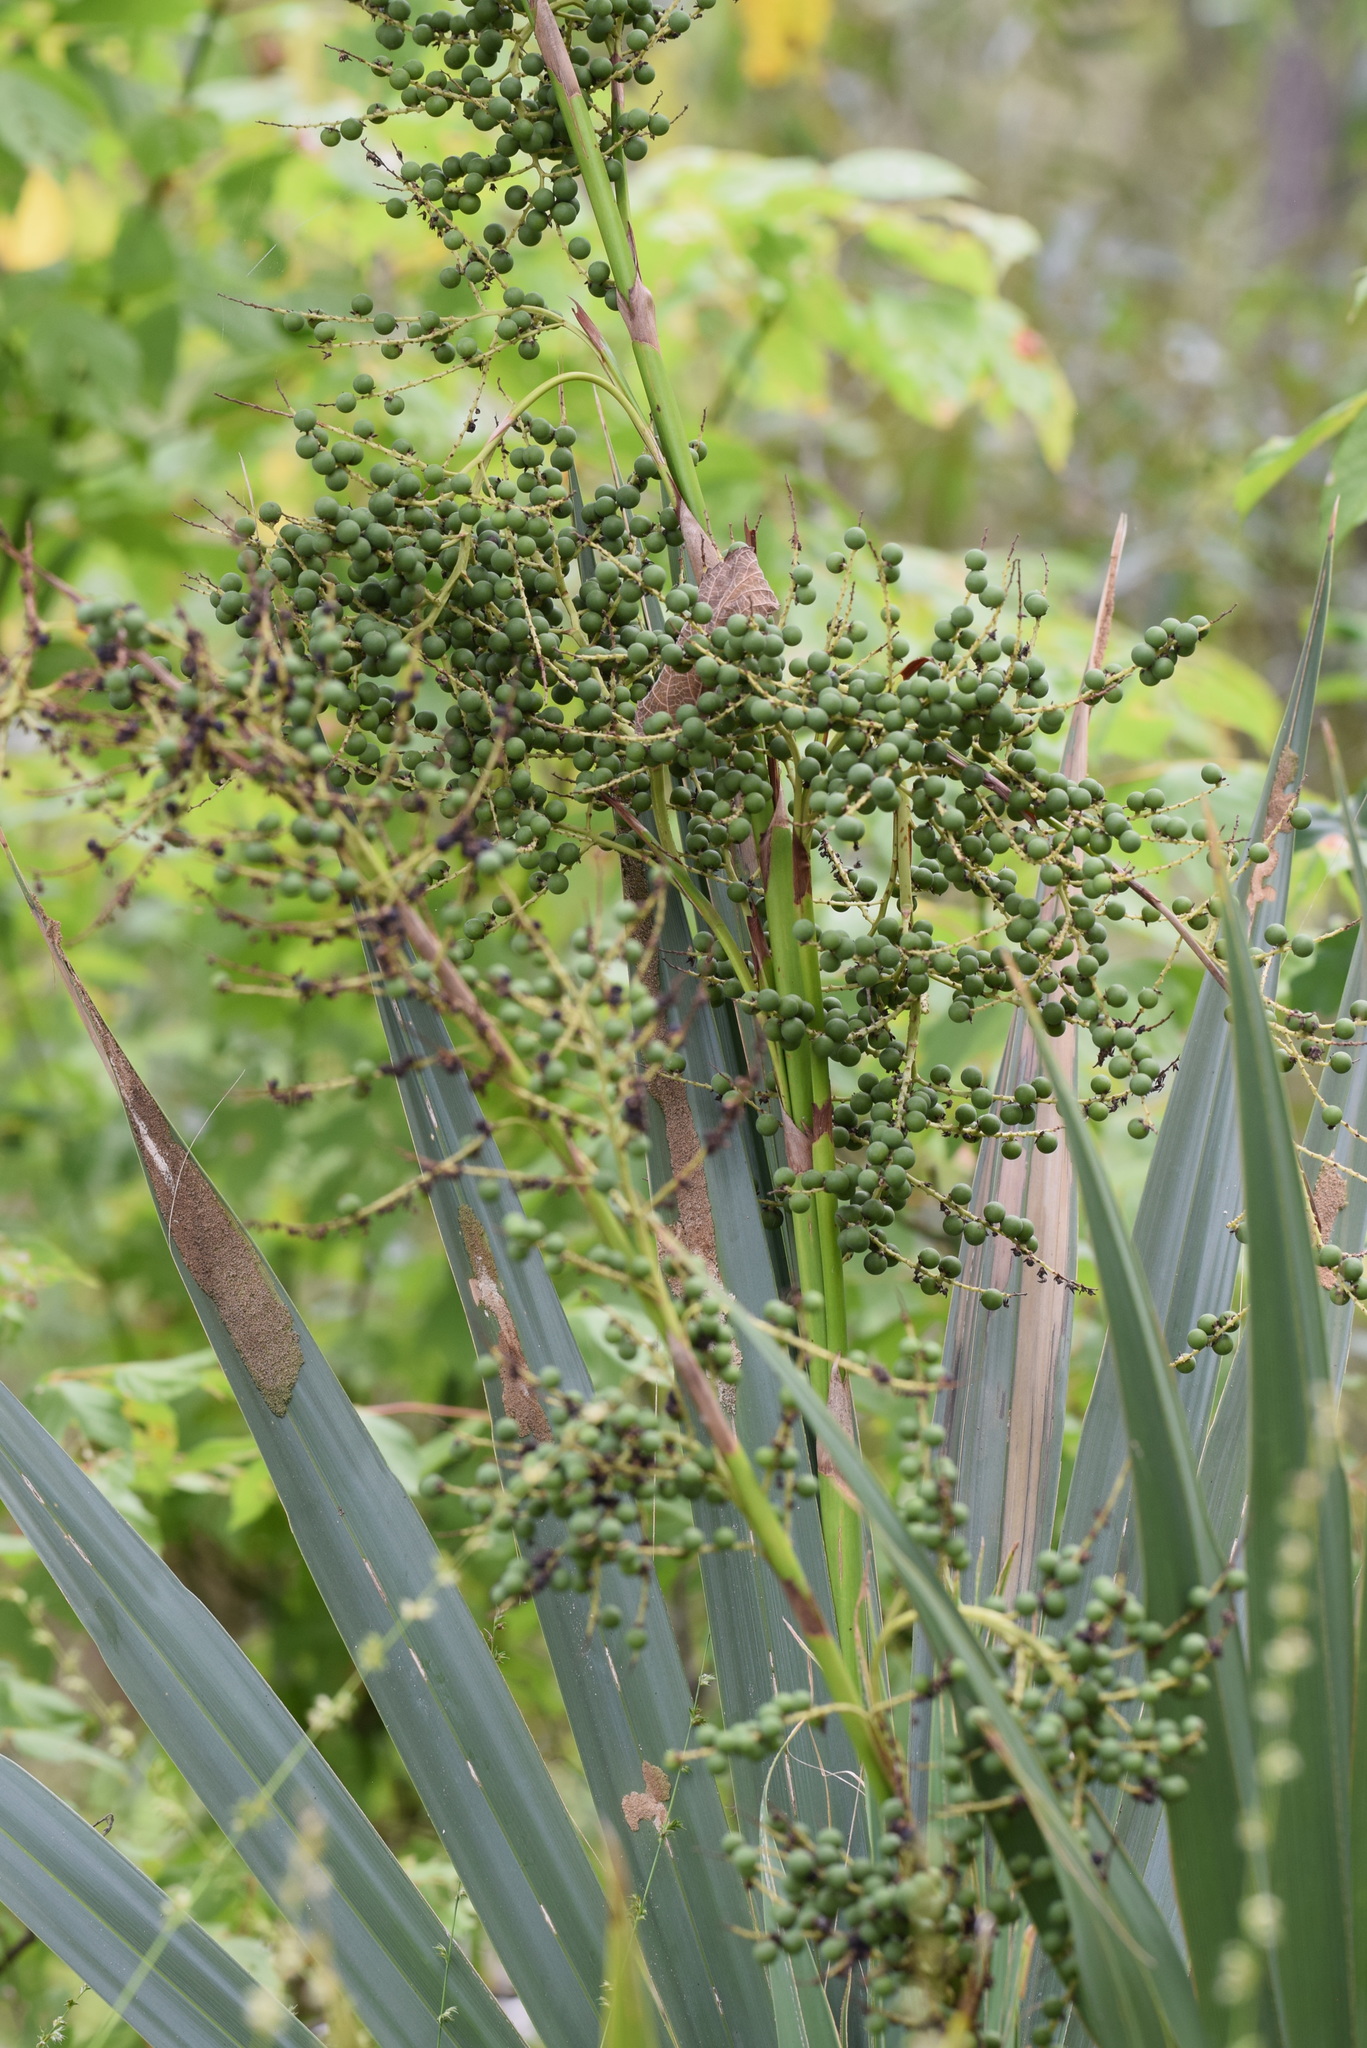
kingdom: Plantae
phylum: Tracheophyta
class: Liliopsida
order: Arecales
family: Arecaceae
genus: Sabal
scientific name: Sabal minor
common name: Dwarf palmetto
